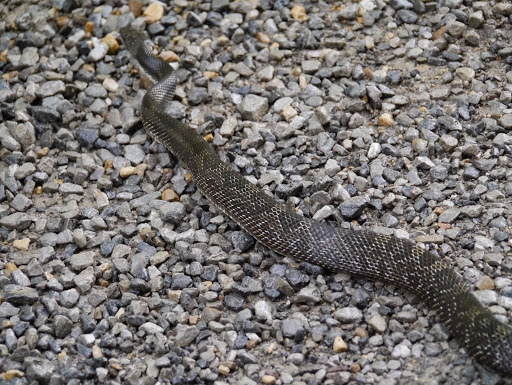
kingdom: Animalia
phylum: Chordata
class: Squamata
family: Colubridae
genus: Pantherophis
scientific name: Pantherophis spiloides
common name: Gray rat snake
